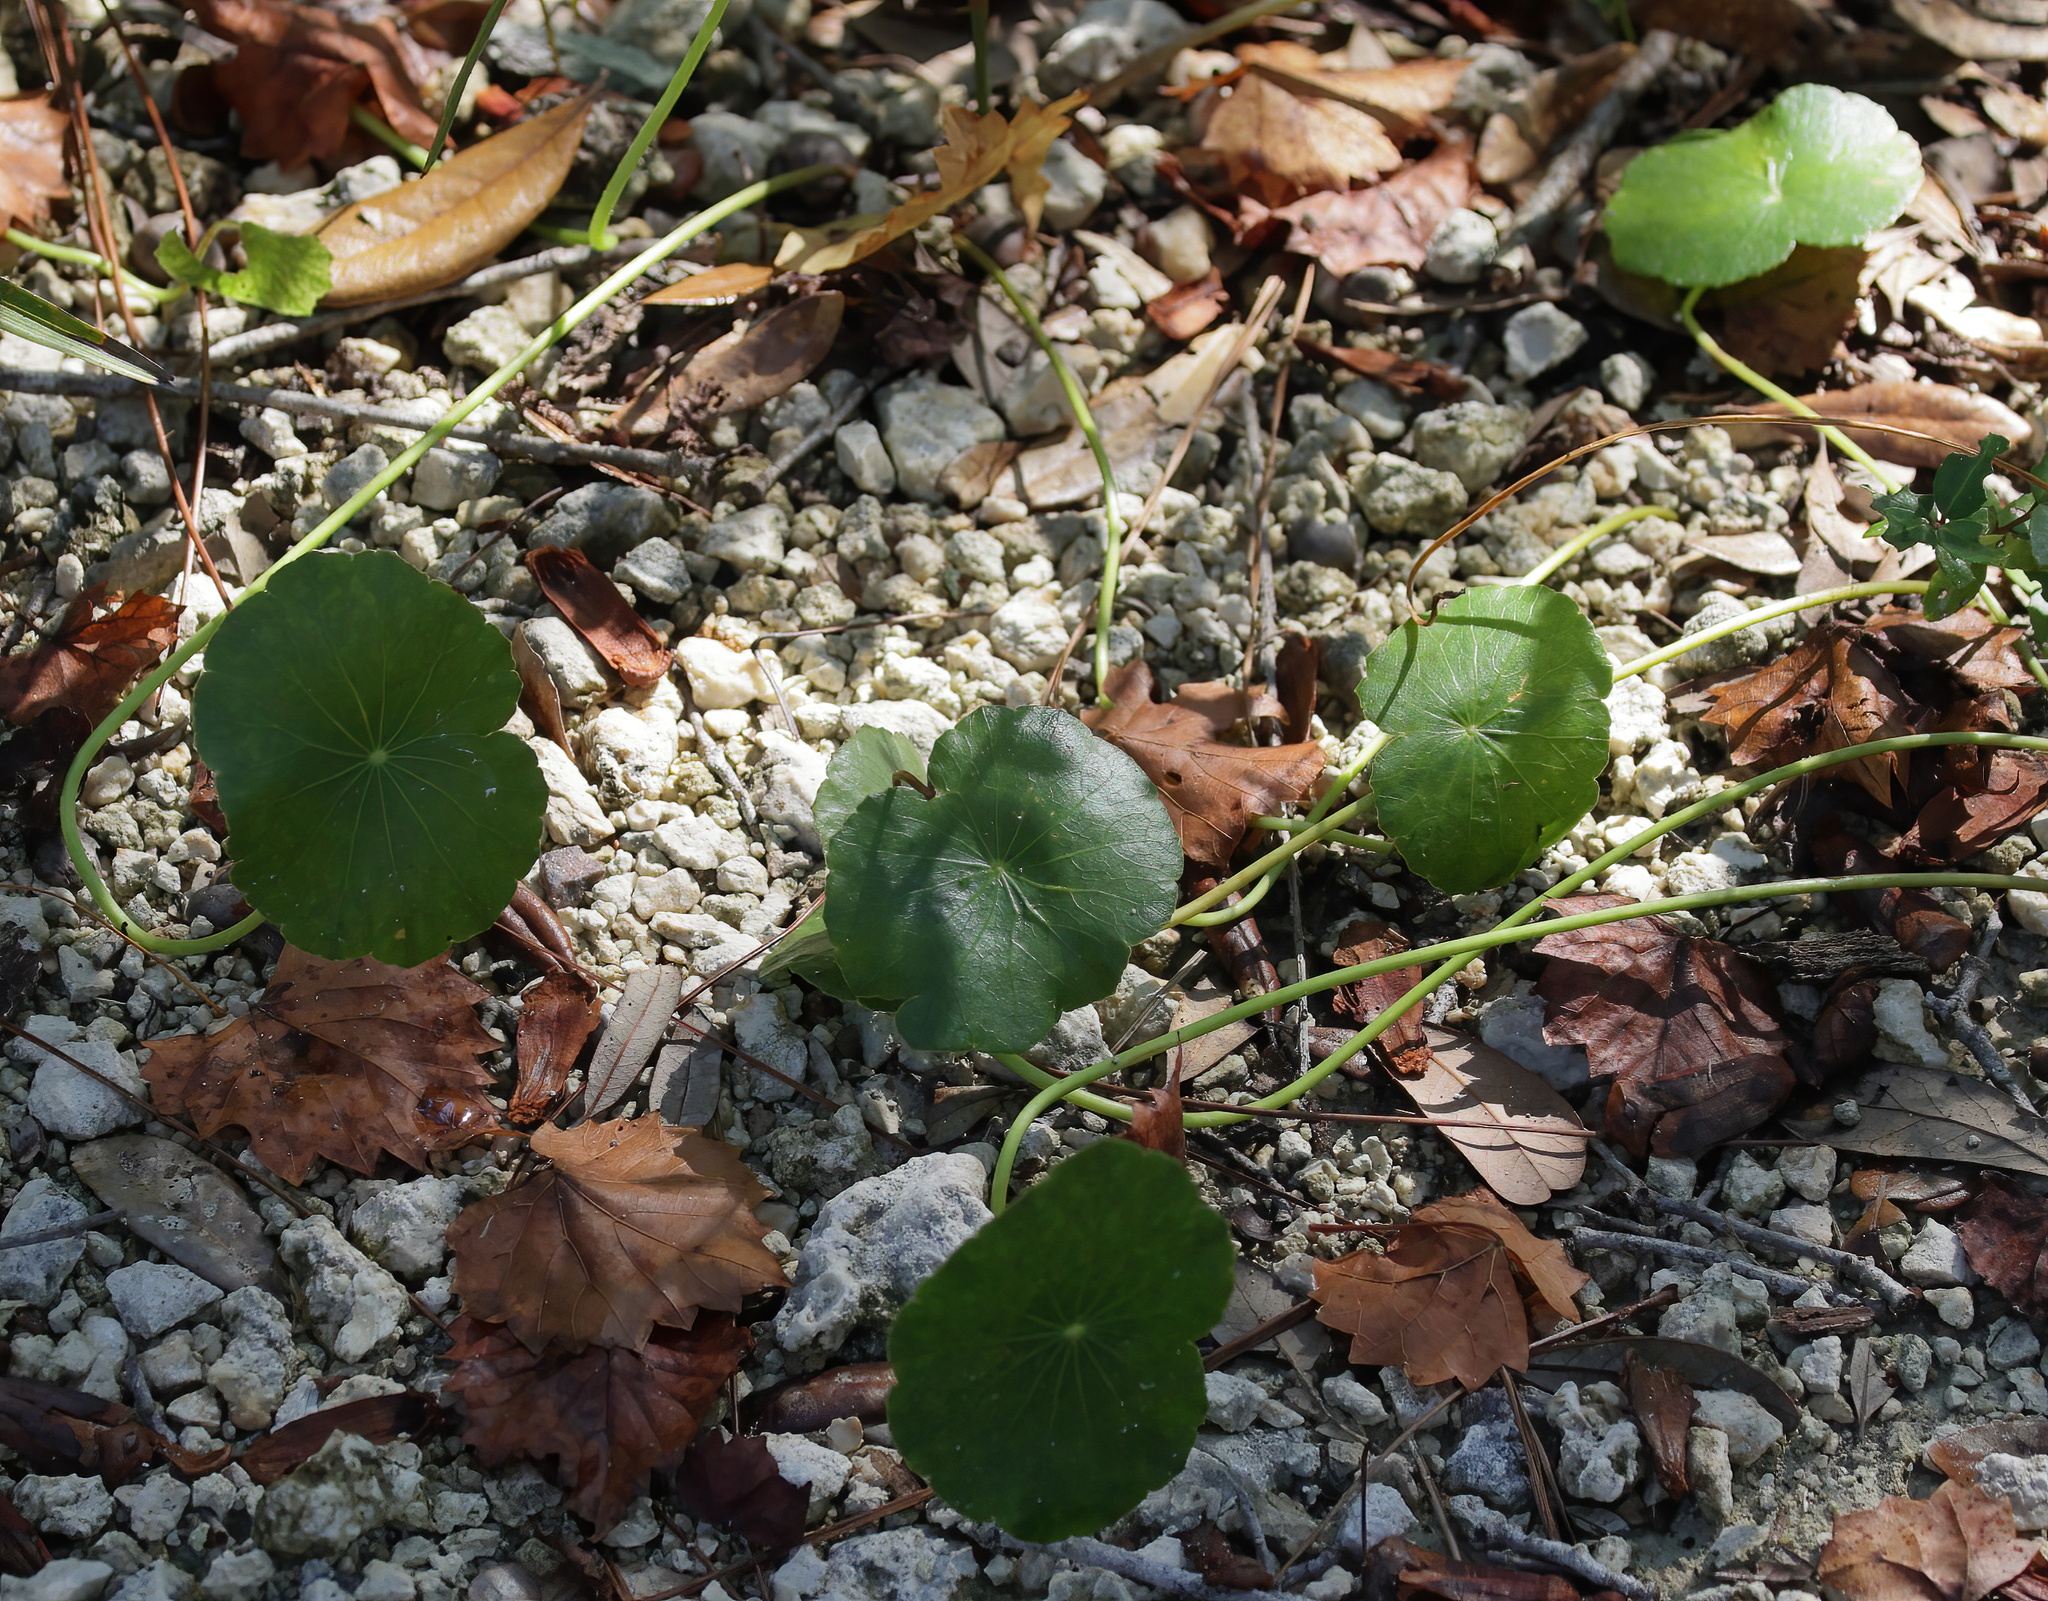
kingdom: Plantae
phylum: Tracheophyta
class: Magnoliopsida
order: Apiales
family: Araliaceae
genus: Hydrocotyle
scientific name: Hydrocotyle bonariensis
